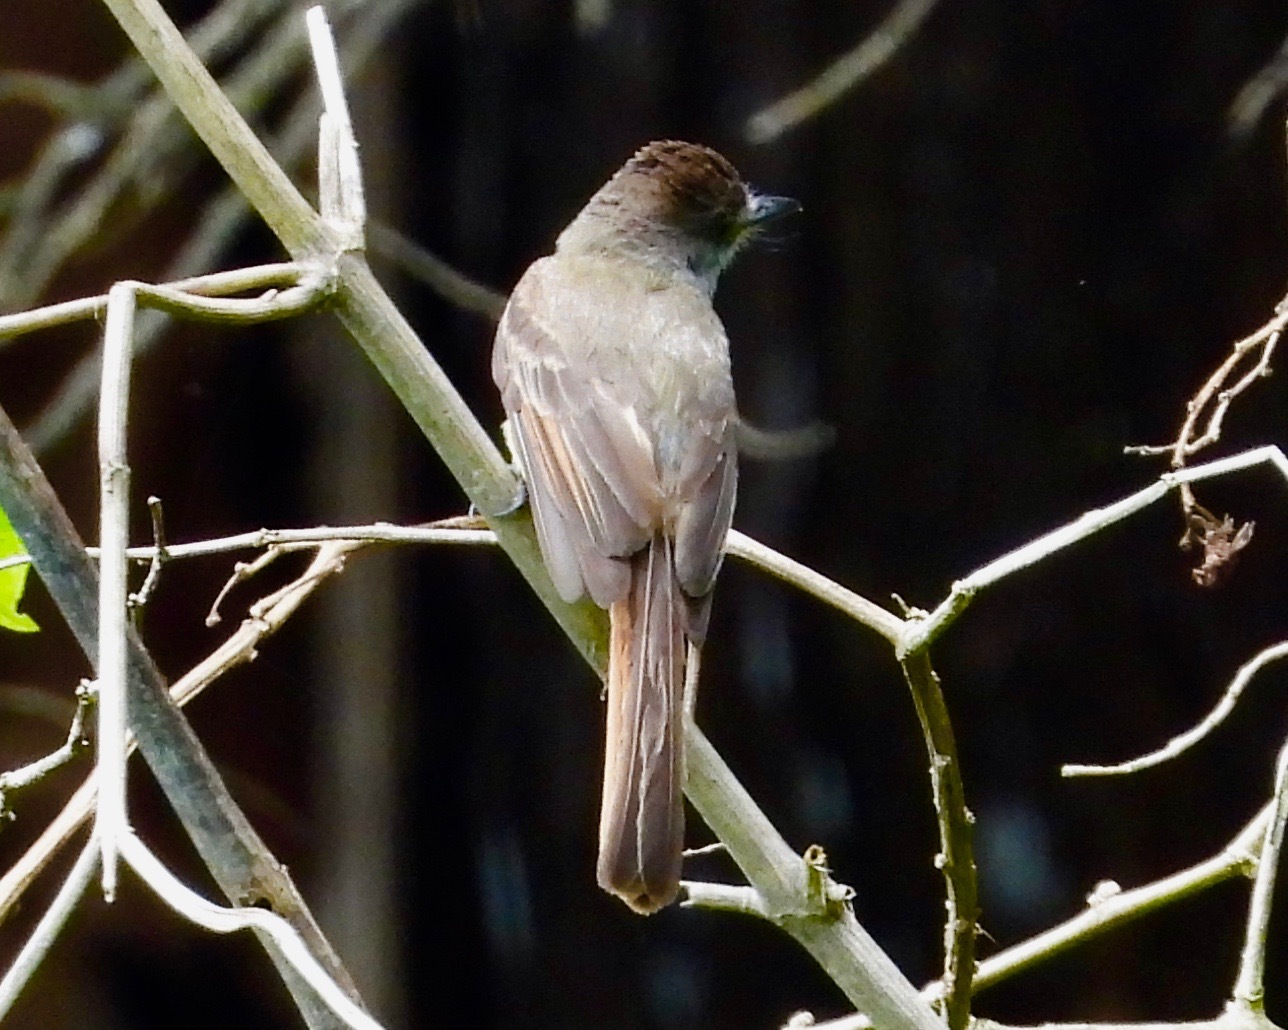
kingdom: Animalia
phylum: Chordata
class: Aves
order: Passeriformes
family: Tyrannidae
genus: Myiarchus
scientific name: Myiarchus tuberculifer
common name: Dusky-capped flycatcher
